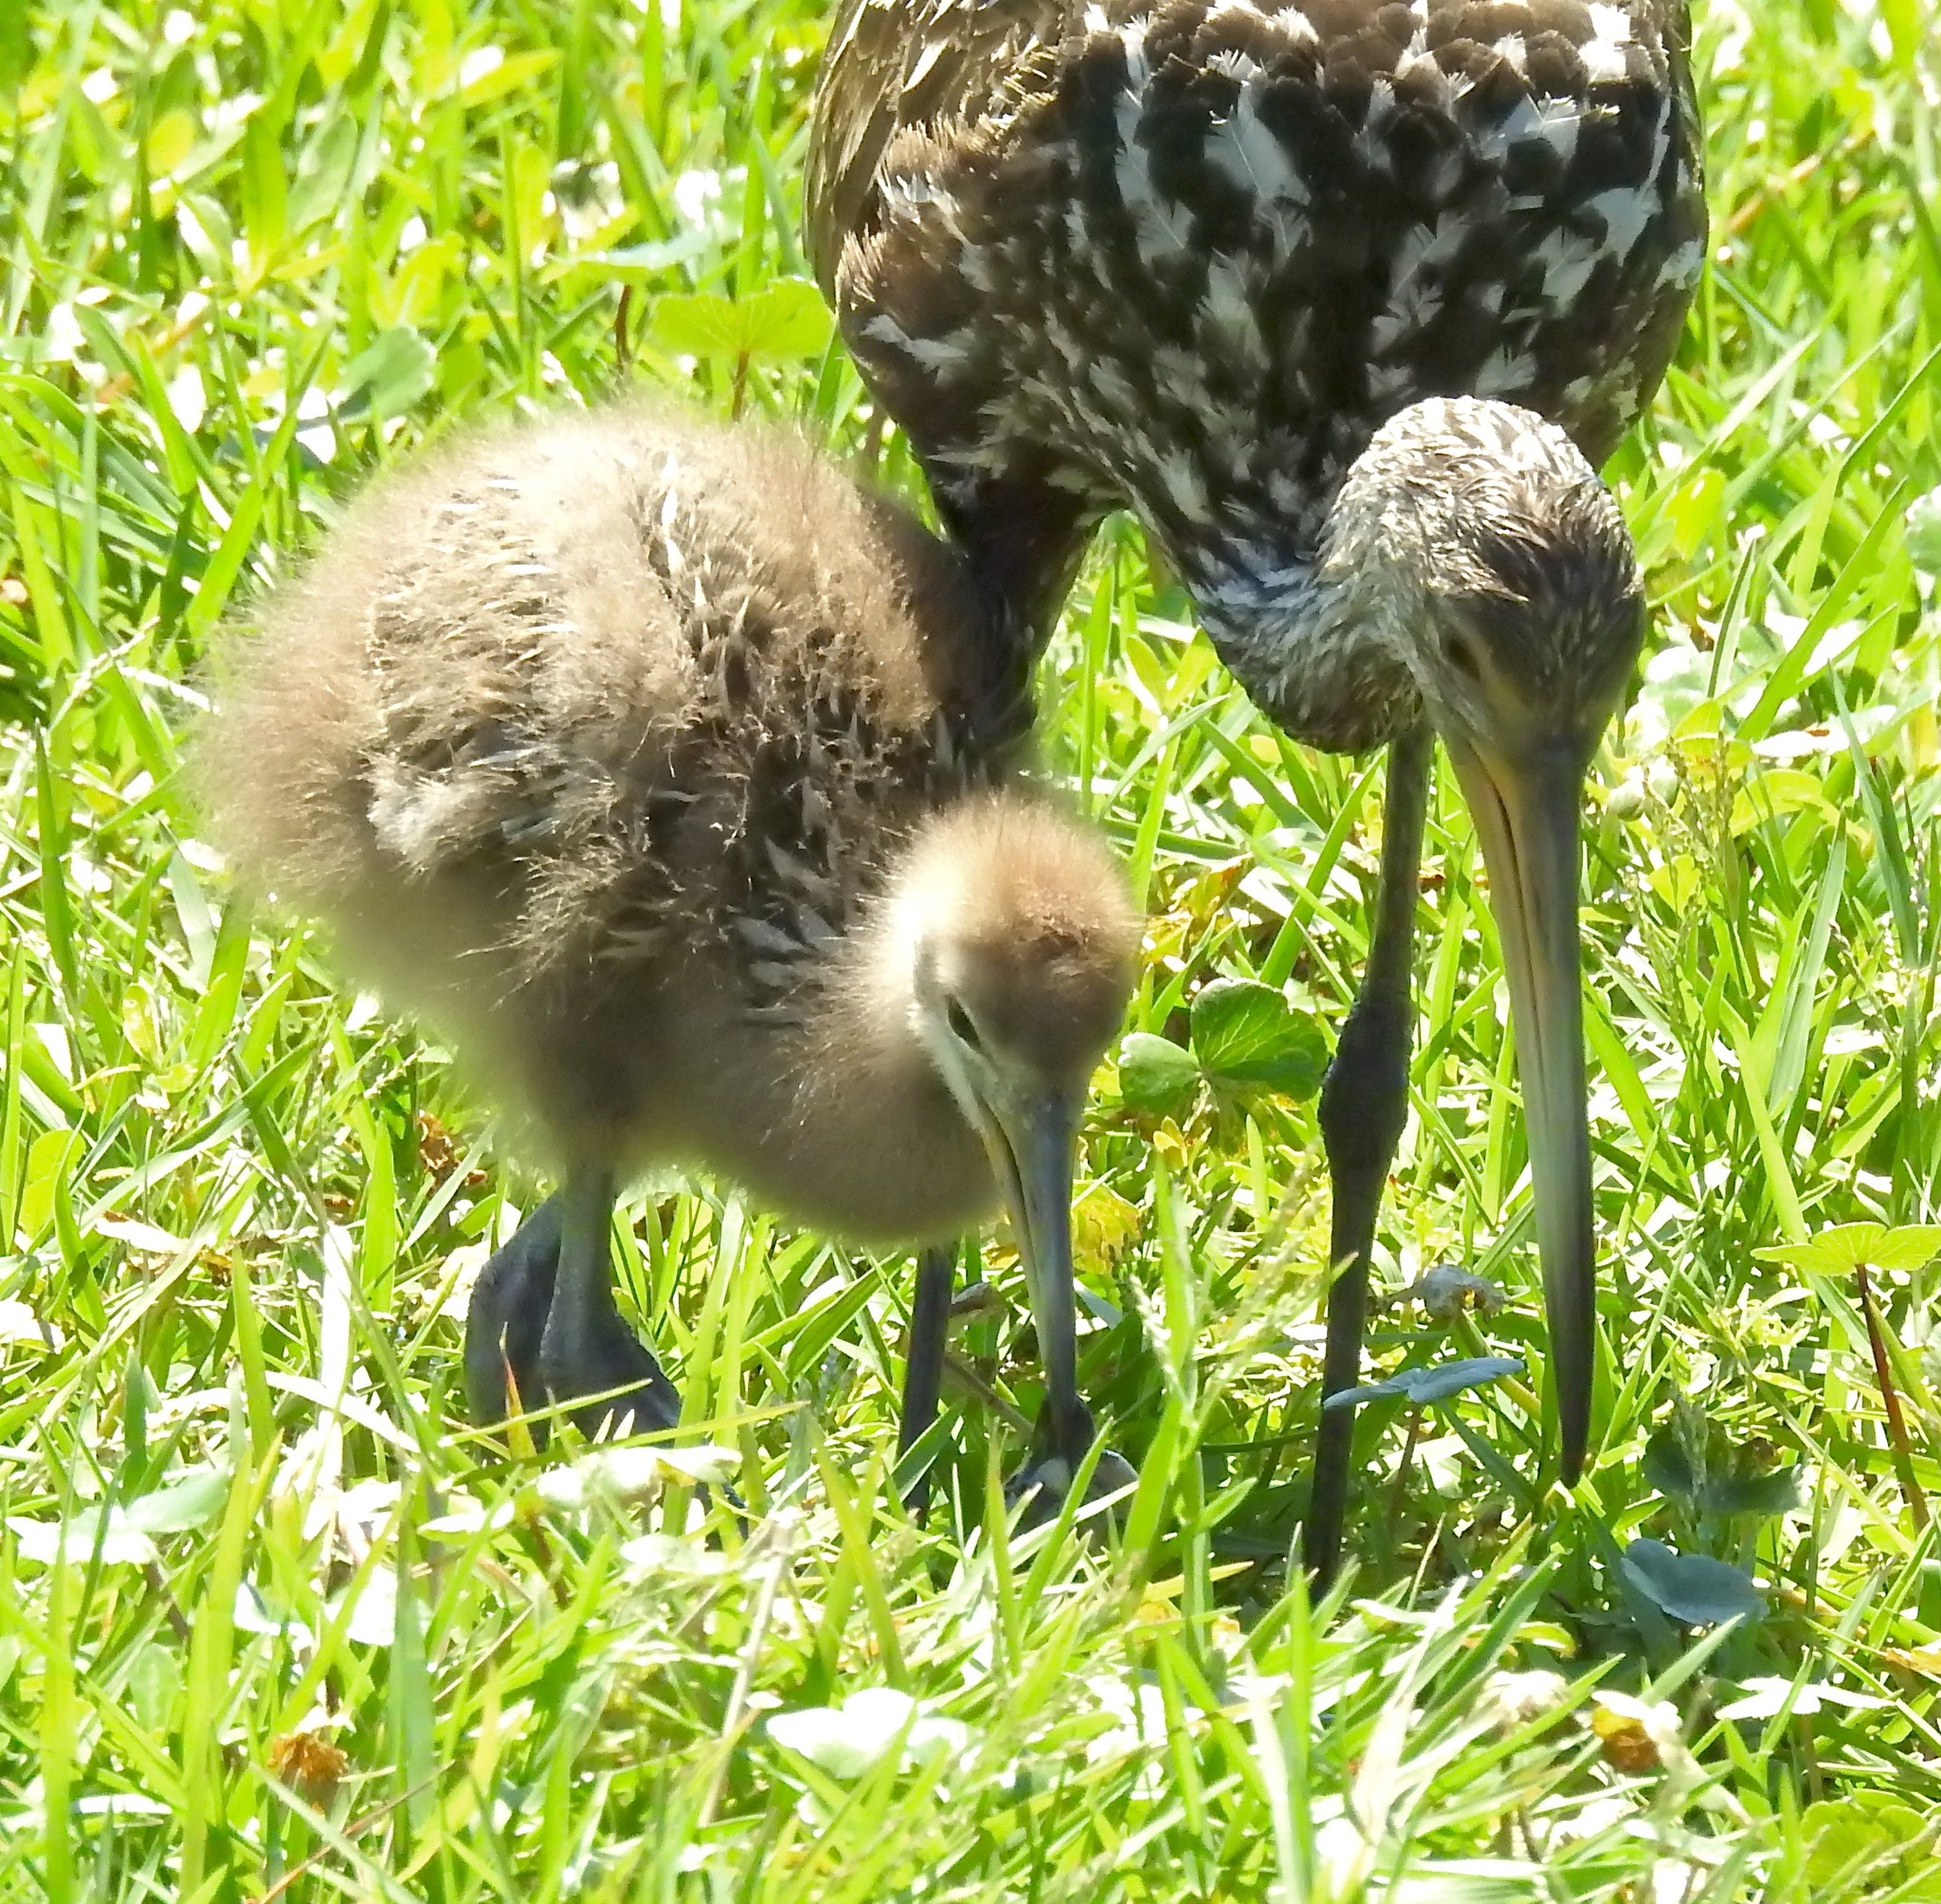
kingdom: Animalia
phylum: Chordata
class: Aves
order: Gruiformes
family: Aramidae
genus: Aramus
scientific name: Aramus guarauna
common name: Limpkin
